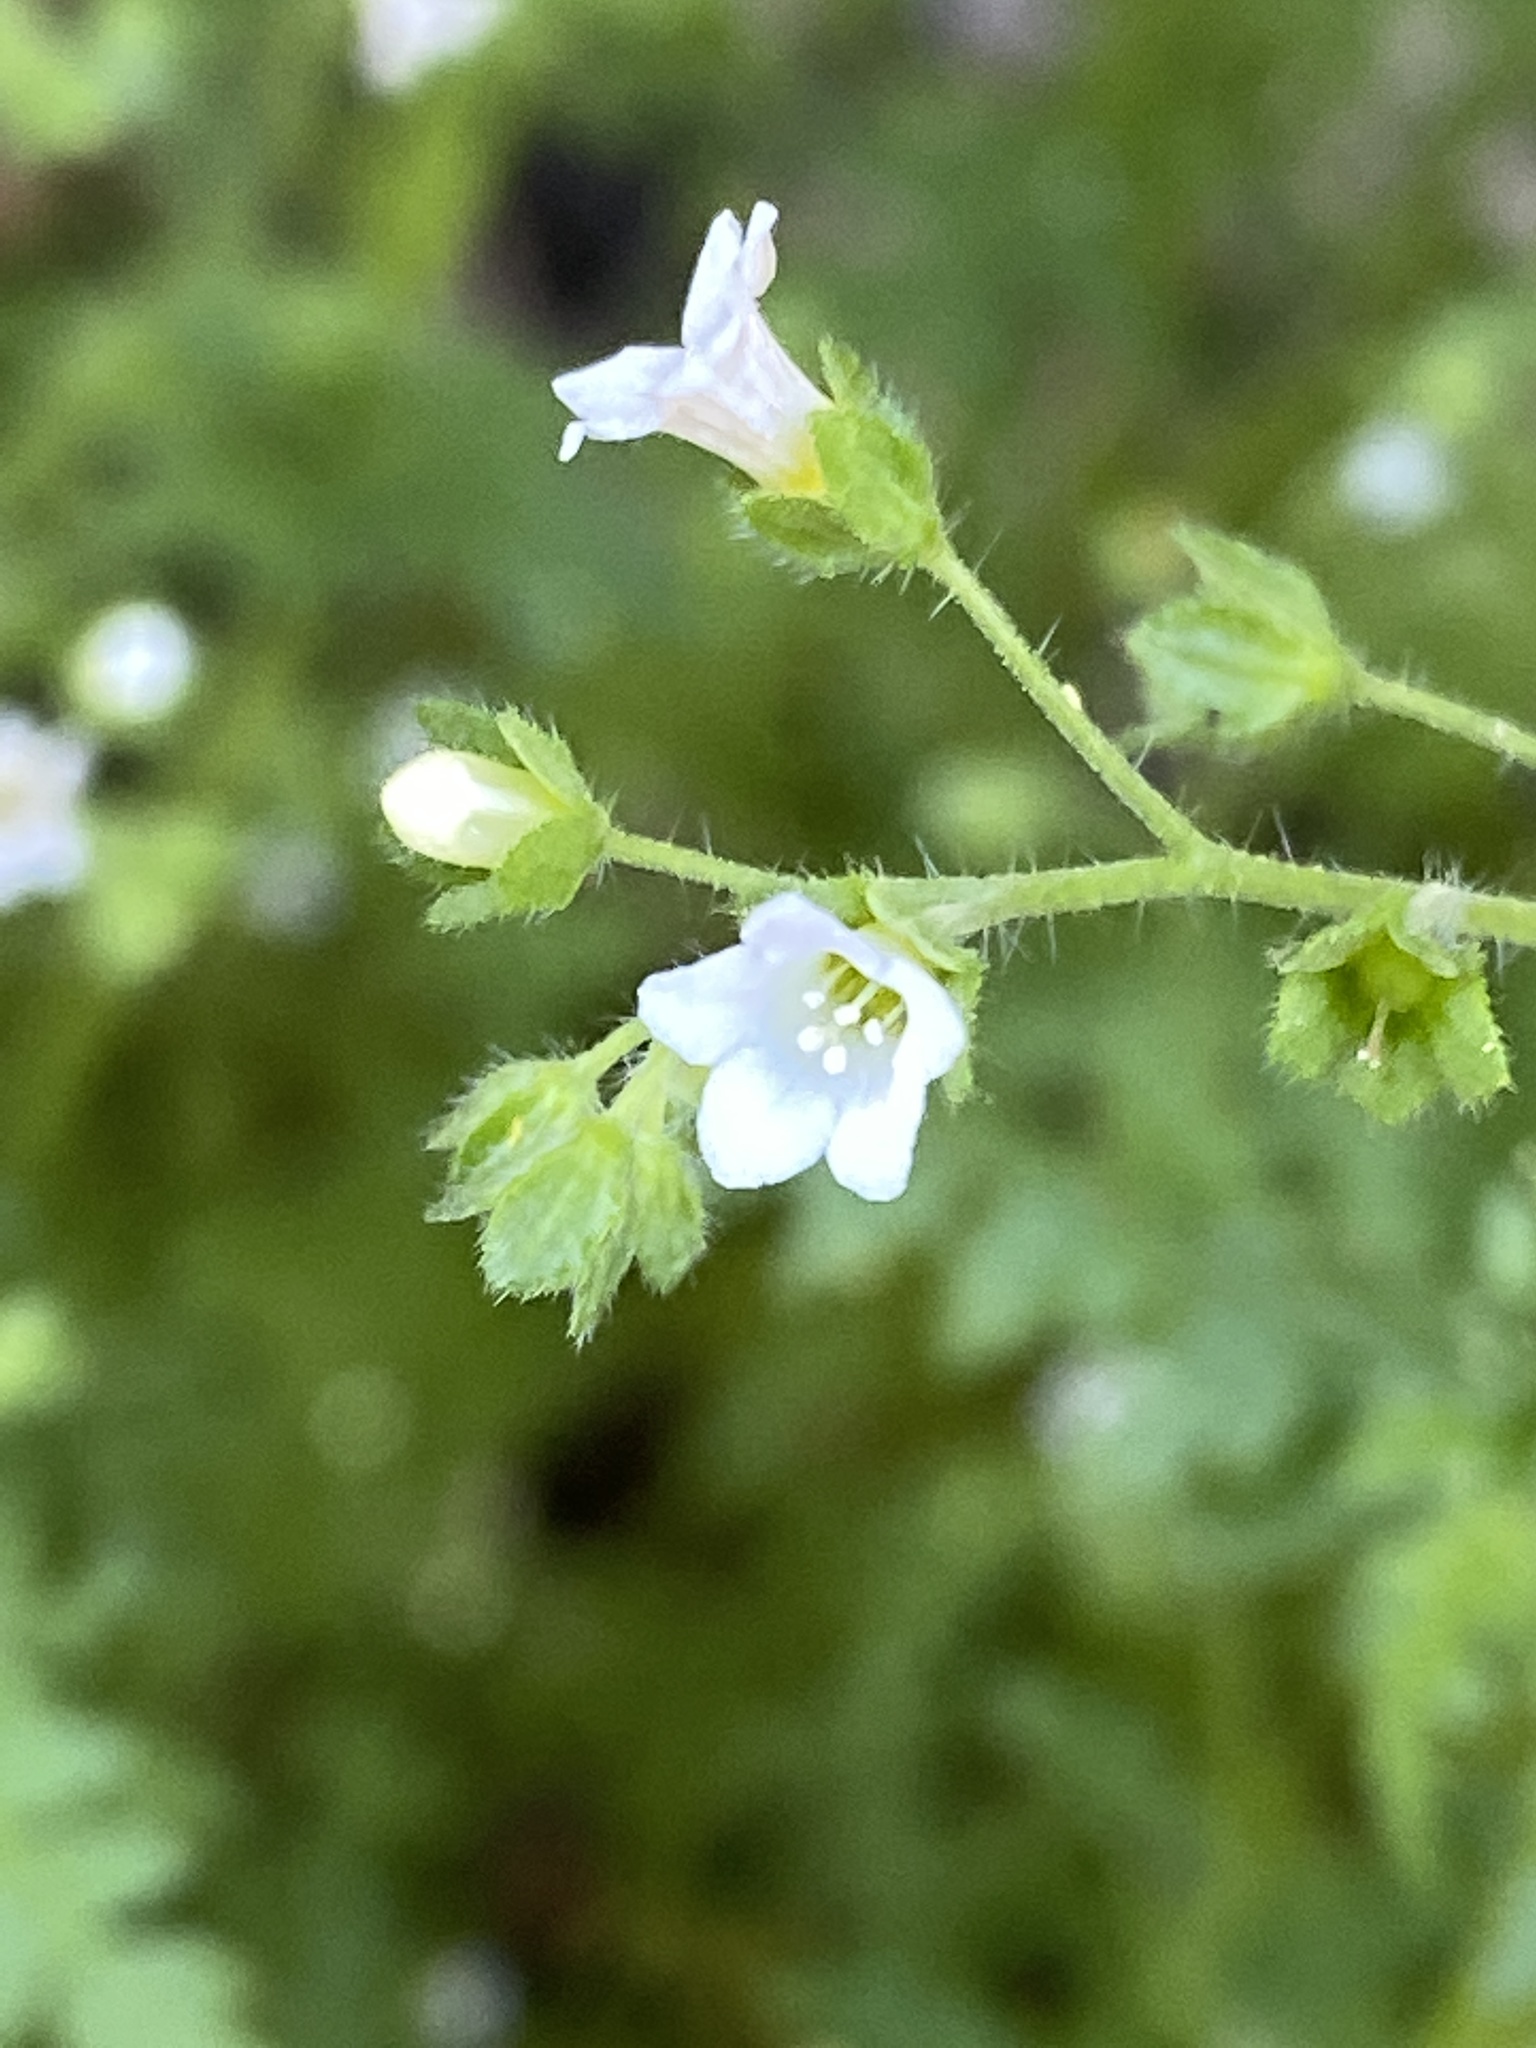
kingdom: Plantae
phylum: Tracheophyta
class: Magnoliopsida
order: Boraginales
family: Hydrophyllaceae
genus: Eucrypta
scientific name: Eucrypta chrysanthemifolia
